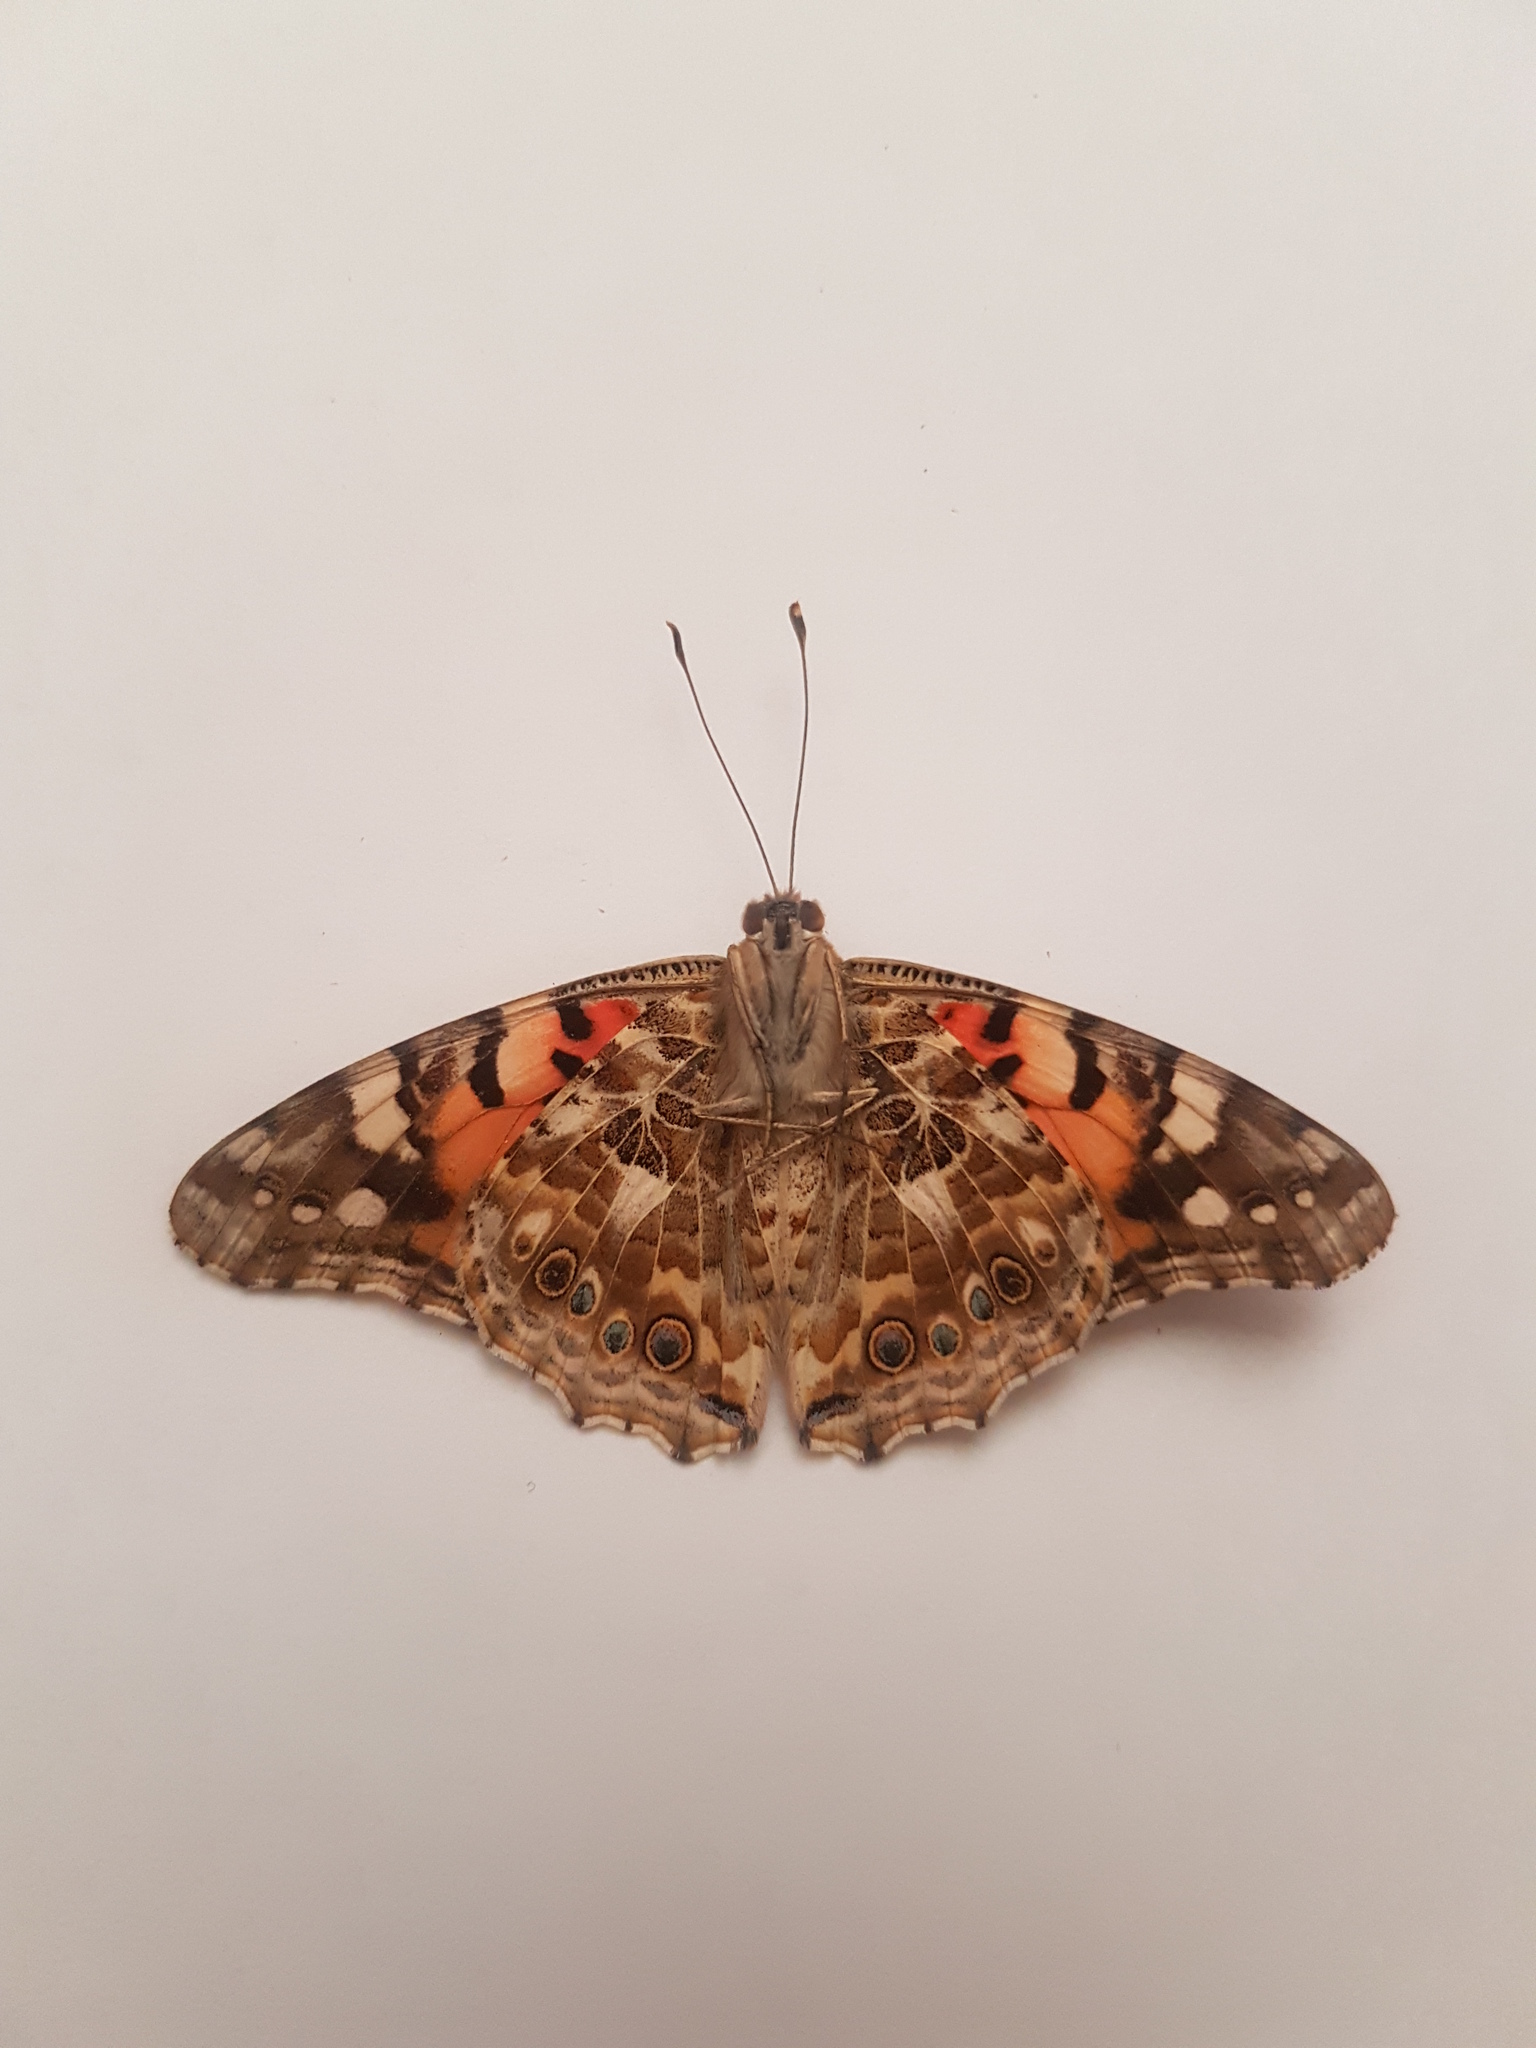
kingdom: Animalia
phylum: Arthropoda
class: Insecta
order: Lepidoptera
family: Nymphalidae
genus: Vanessa
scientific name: Vanessa cardui
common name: Painted lady
